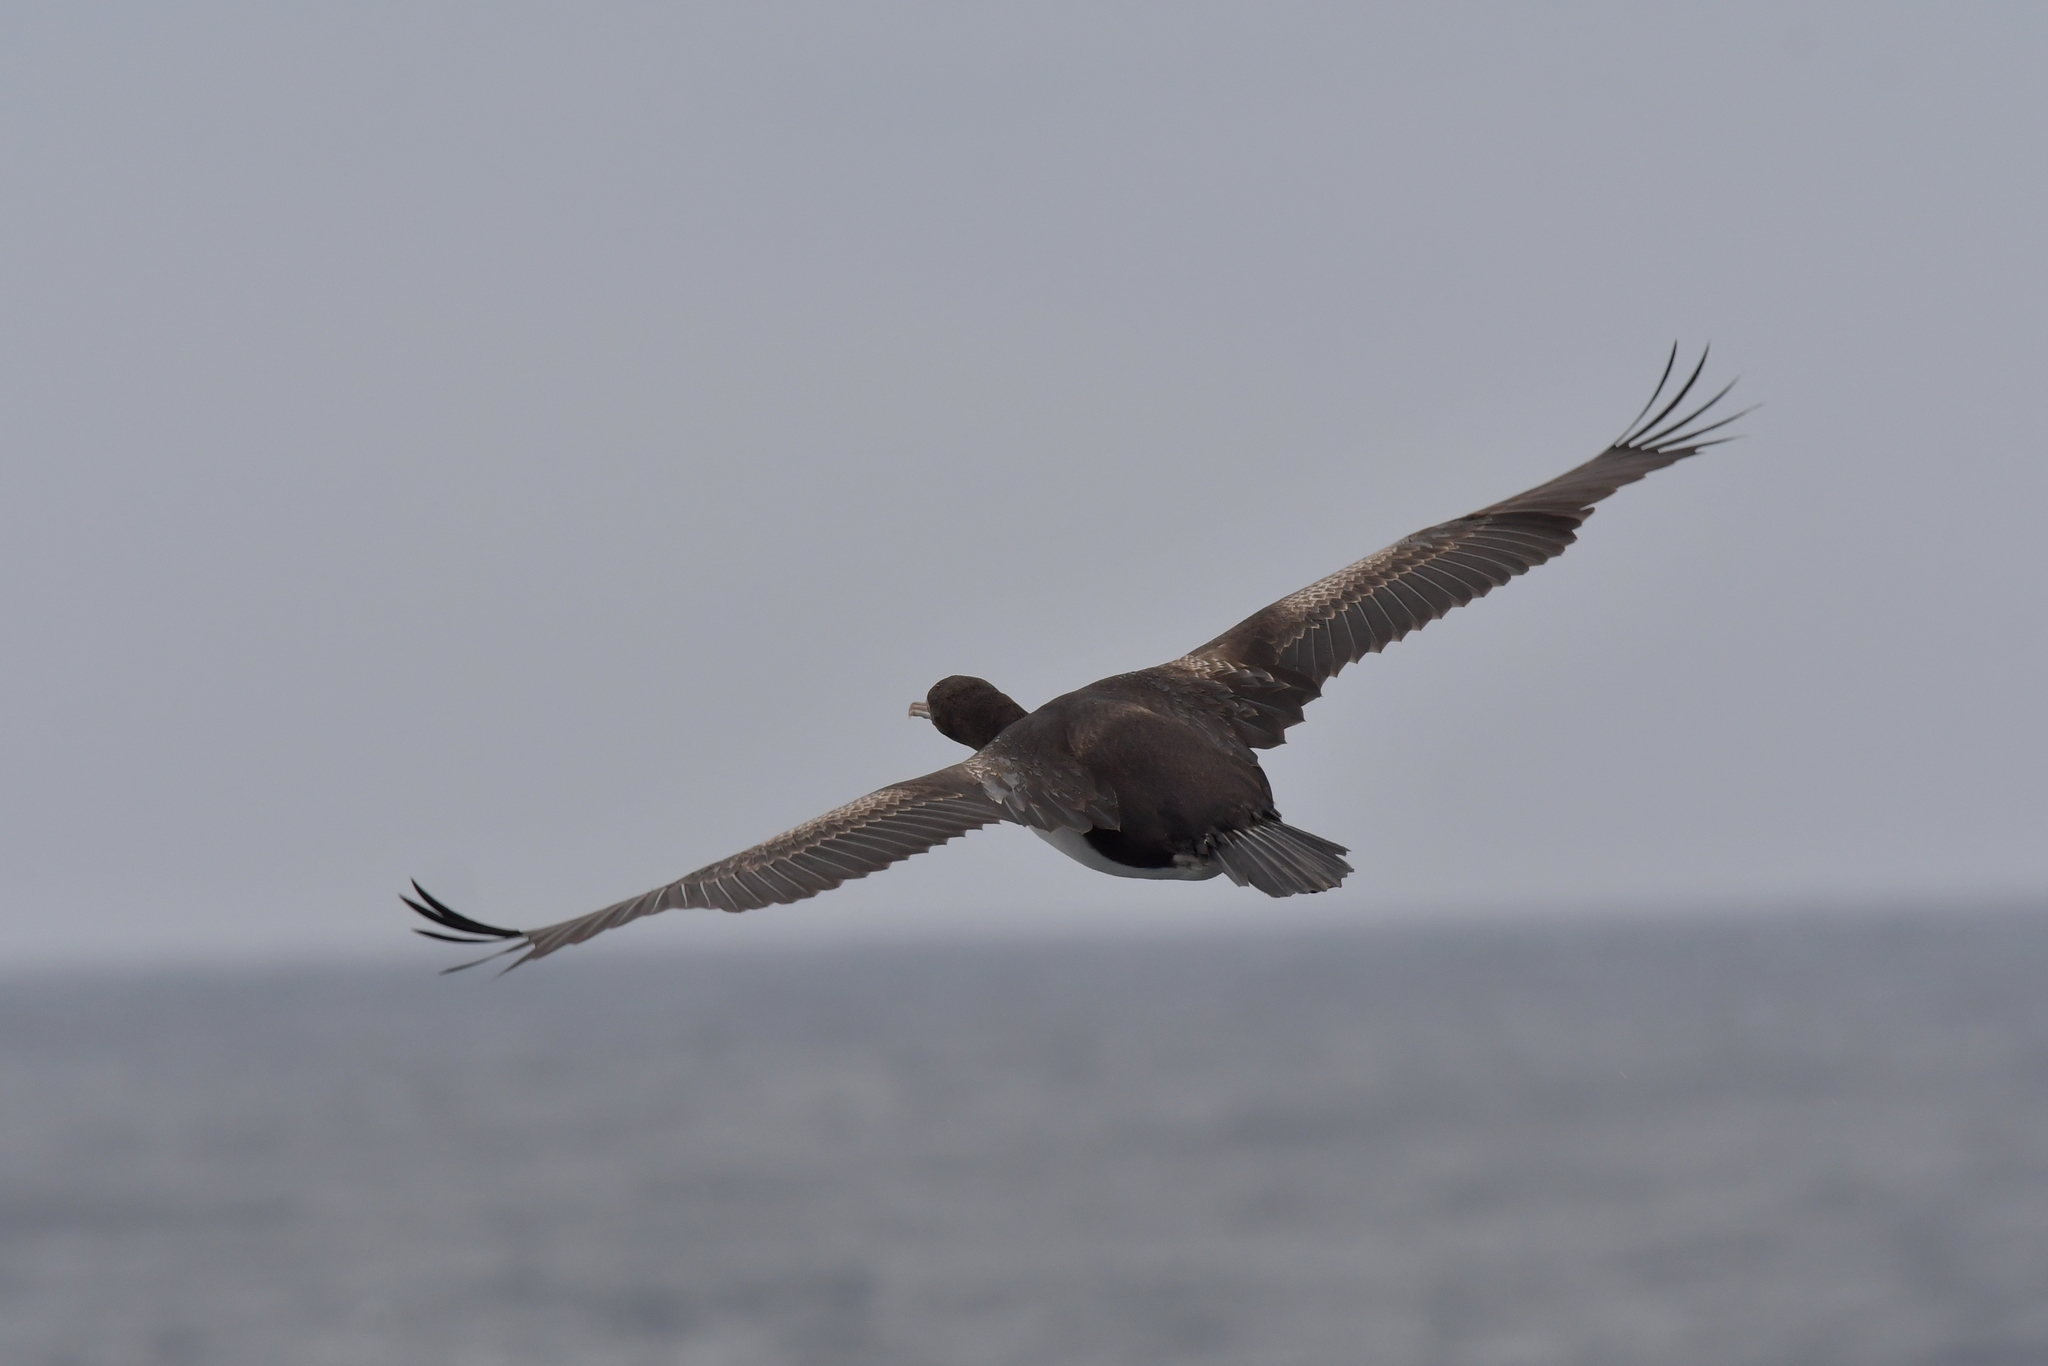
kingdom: Animalia
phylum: Chordata
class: Aves
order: Suliformes
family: Phalacrocoracidae
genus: Leucocarbo
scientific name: Leucocarbo ranfurlyi
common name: Bounty shag
